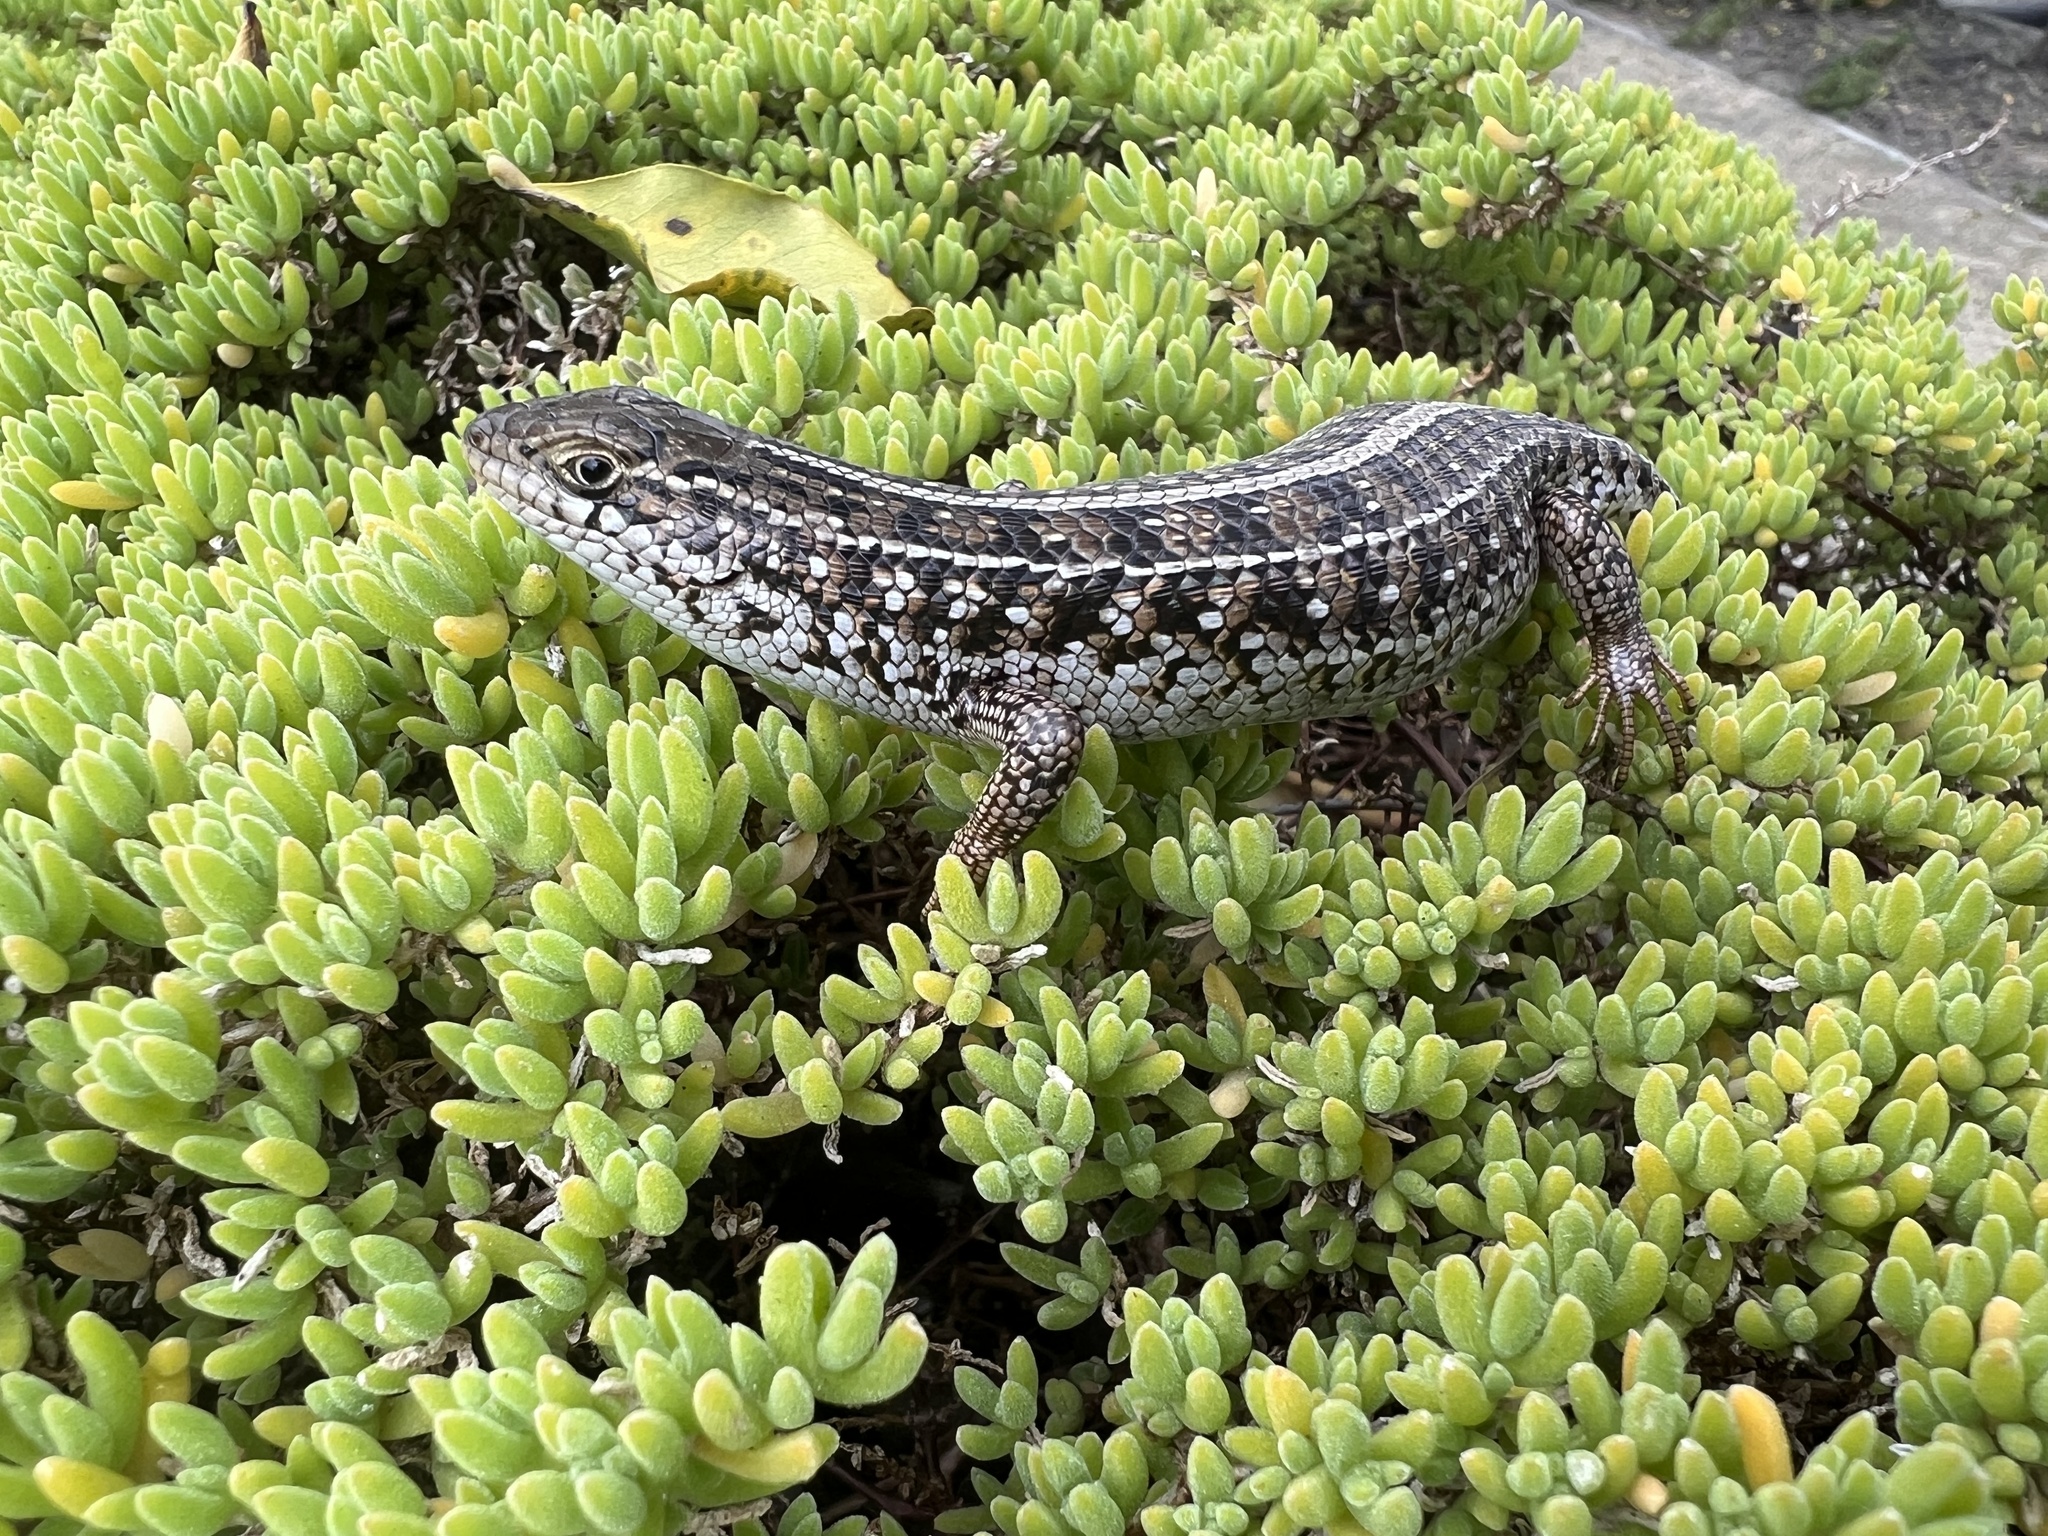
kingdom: Animalia
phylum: Chordata
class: Squamata
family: Scincidae
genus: Trachylepis
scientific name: Trachylepis capensis
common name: Cape skink
